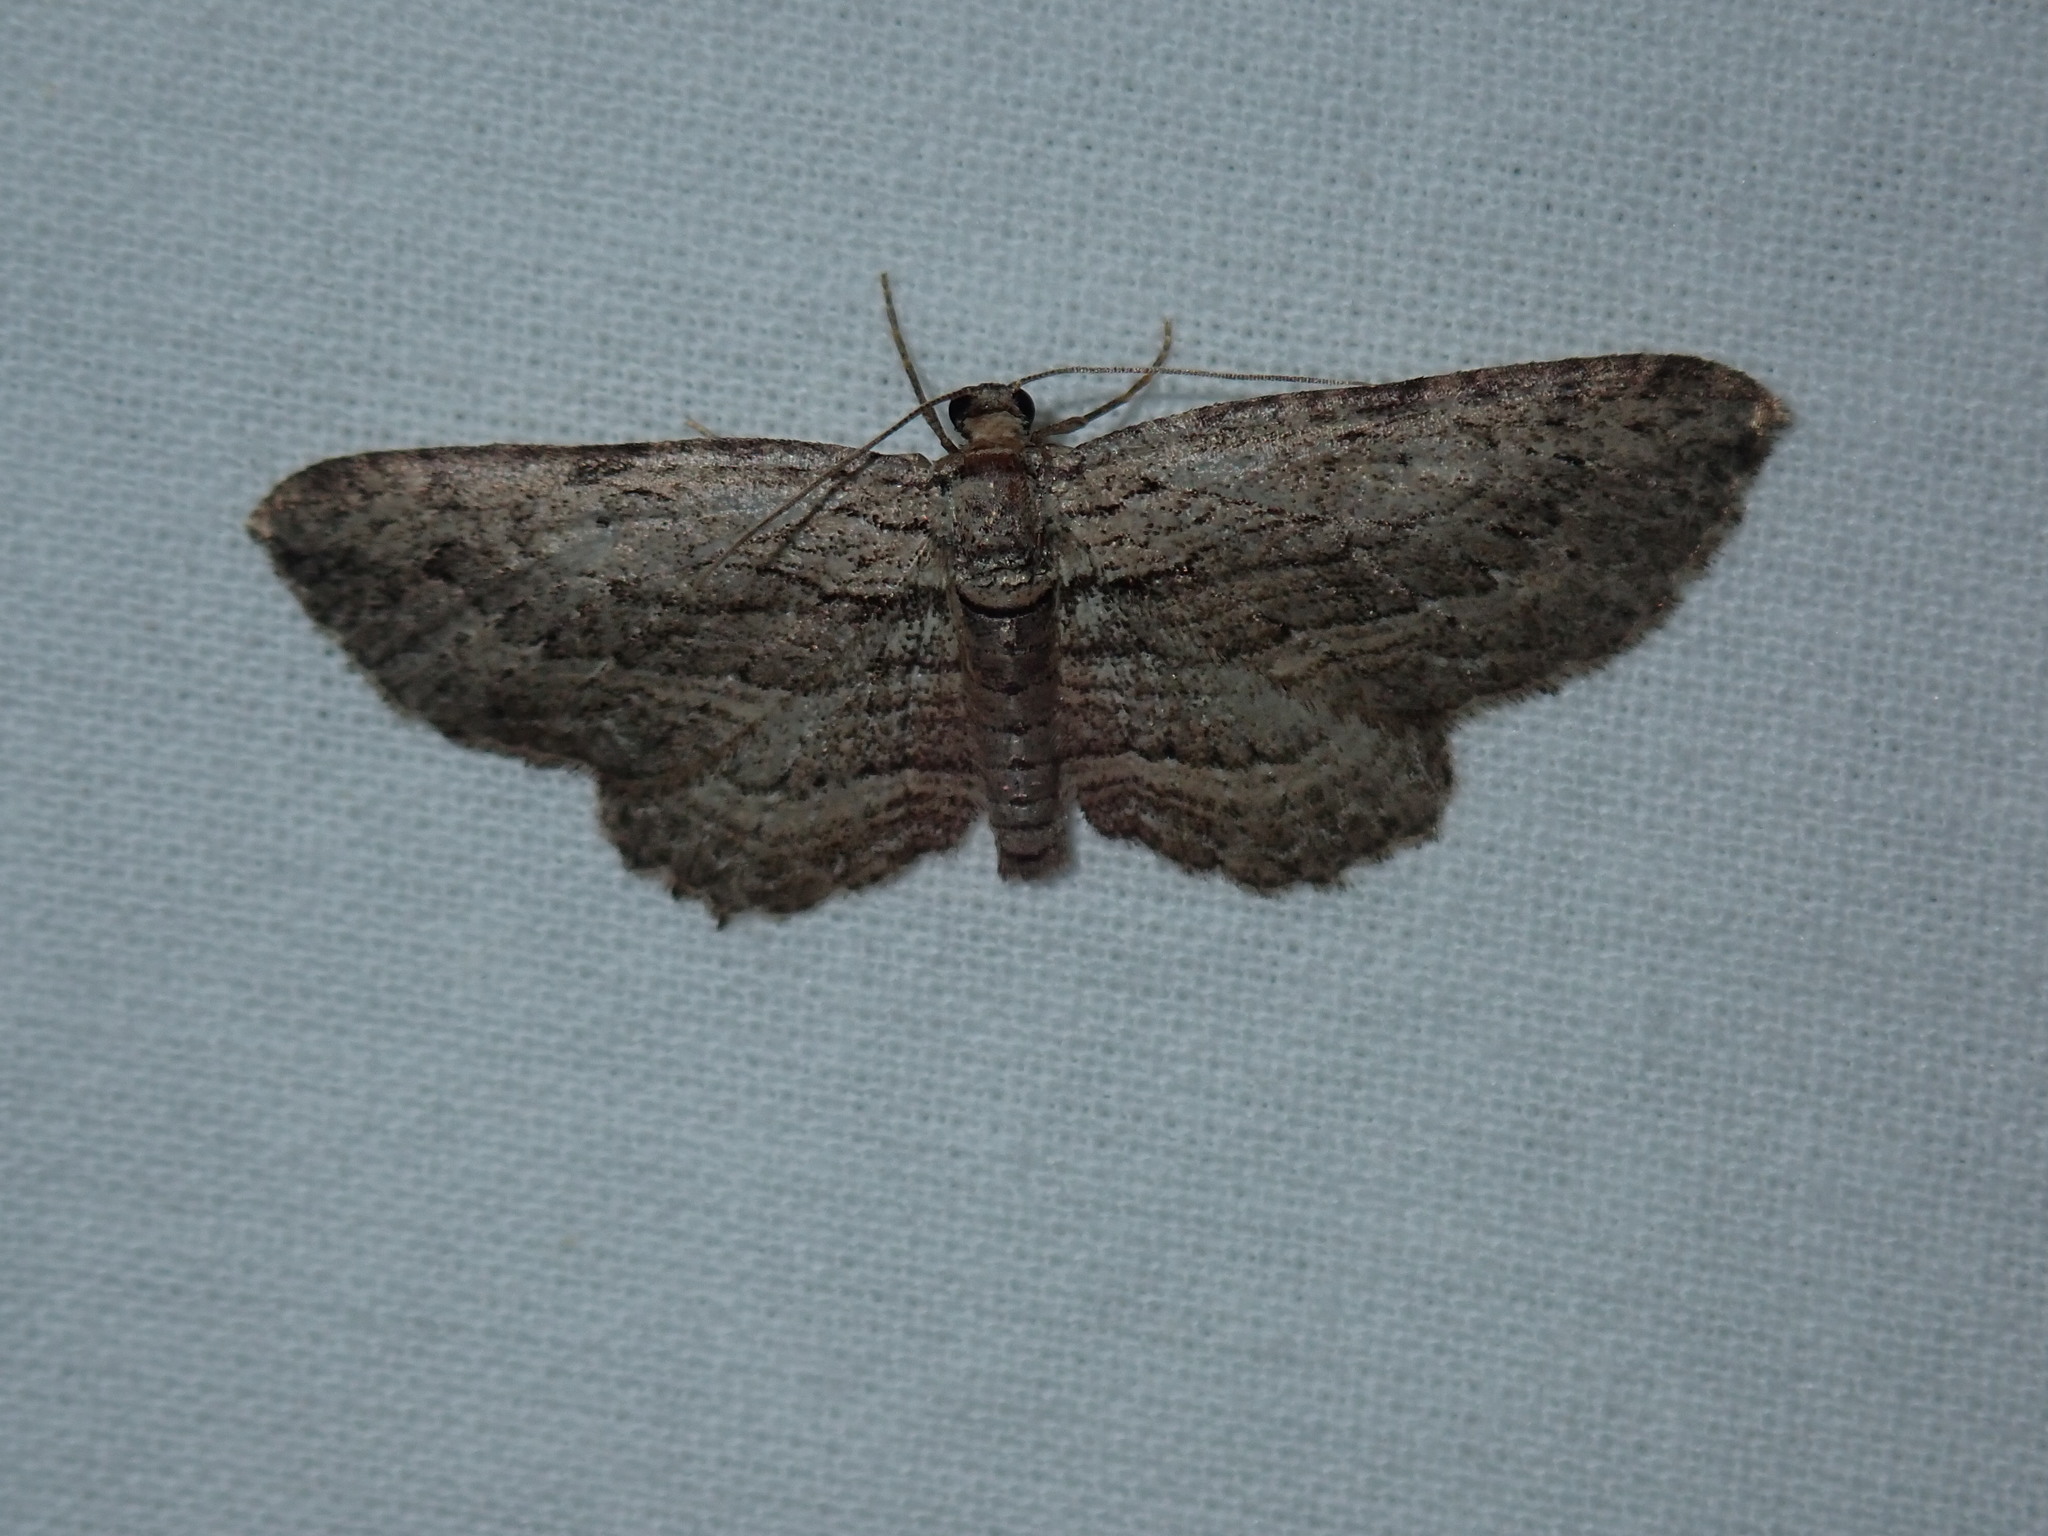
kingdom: Animalia
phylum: Arthropoda
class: Insecta
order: Lepidoptera
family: Geometridae
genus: Horisme
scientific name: Horisme intestinata
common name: Brown bark carpet
